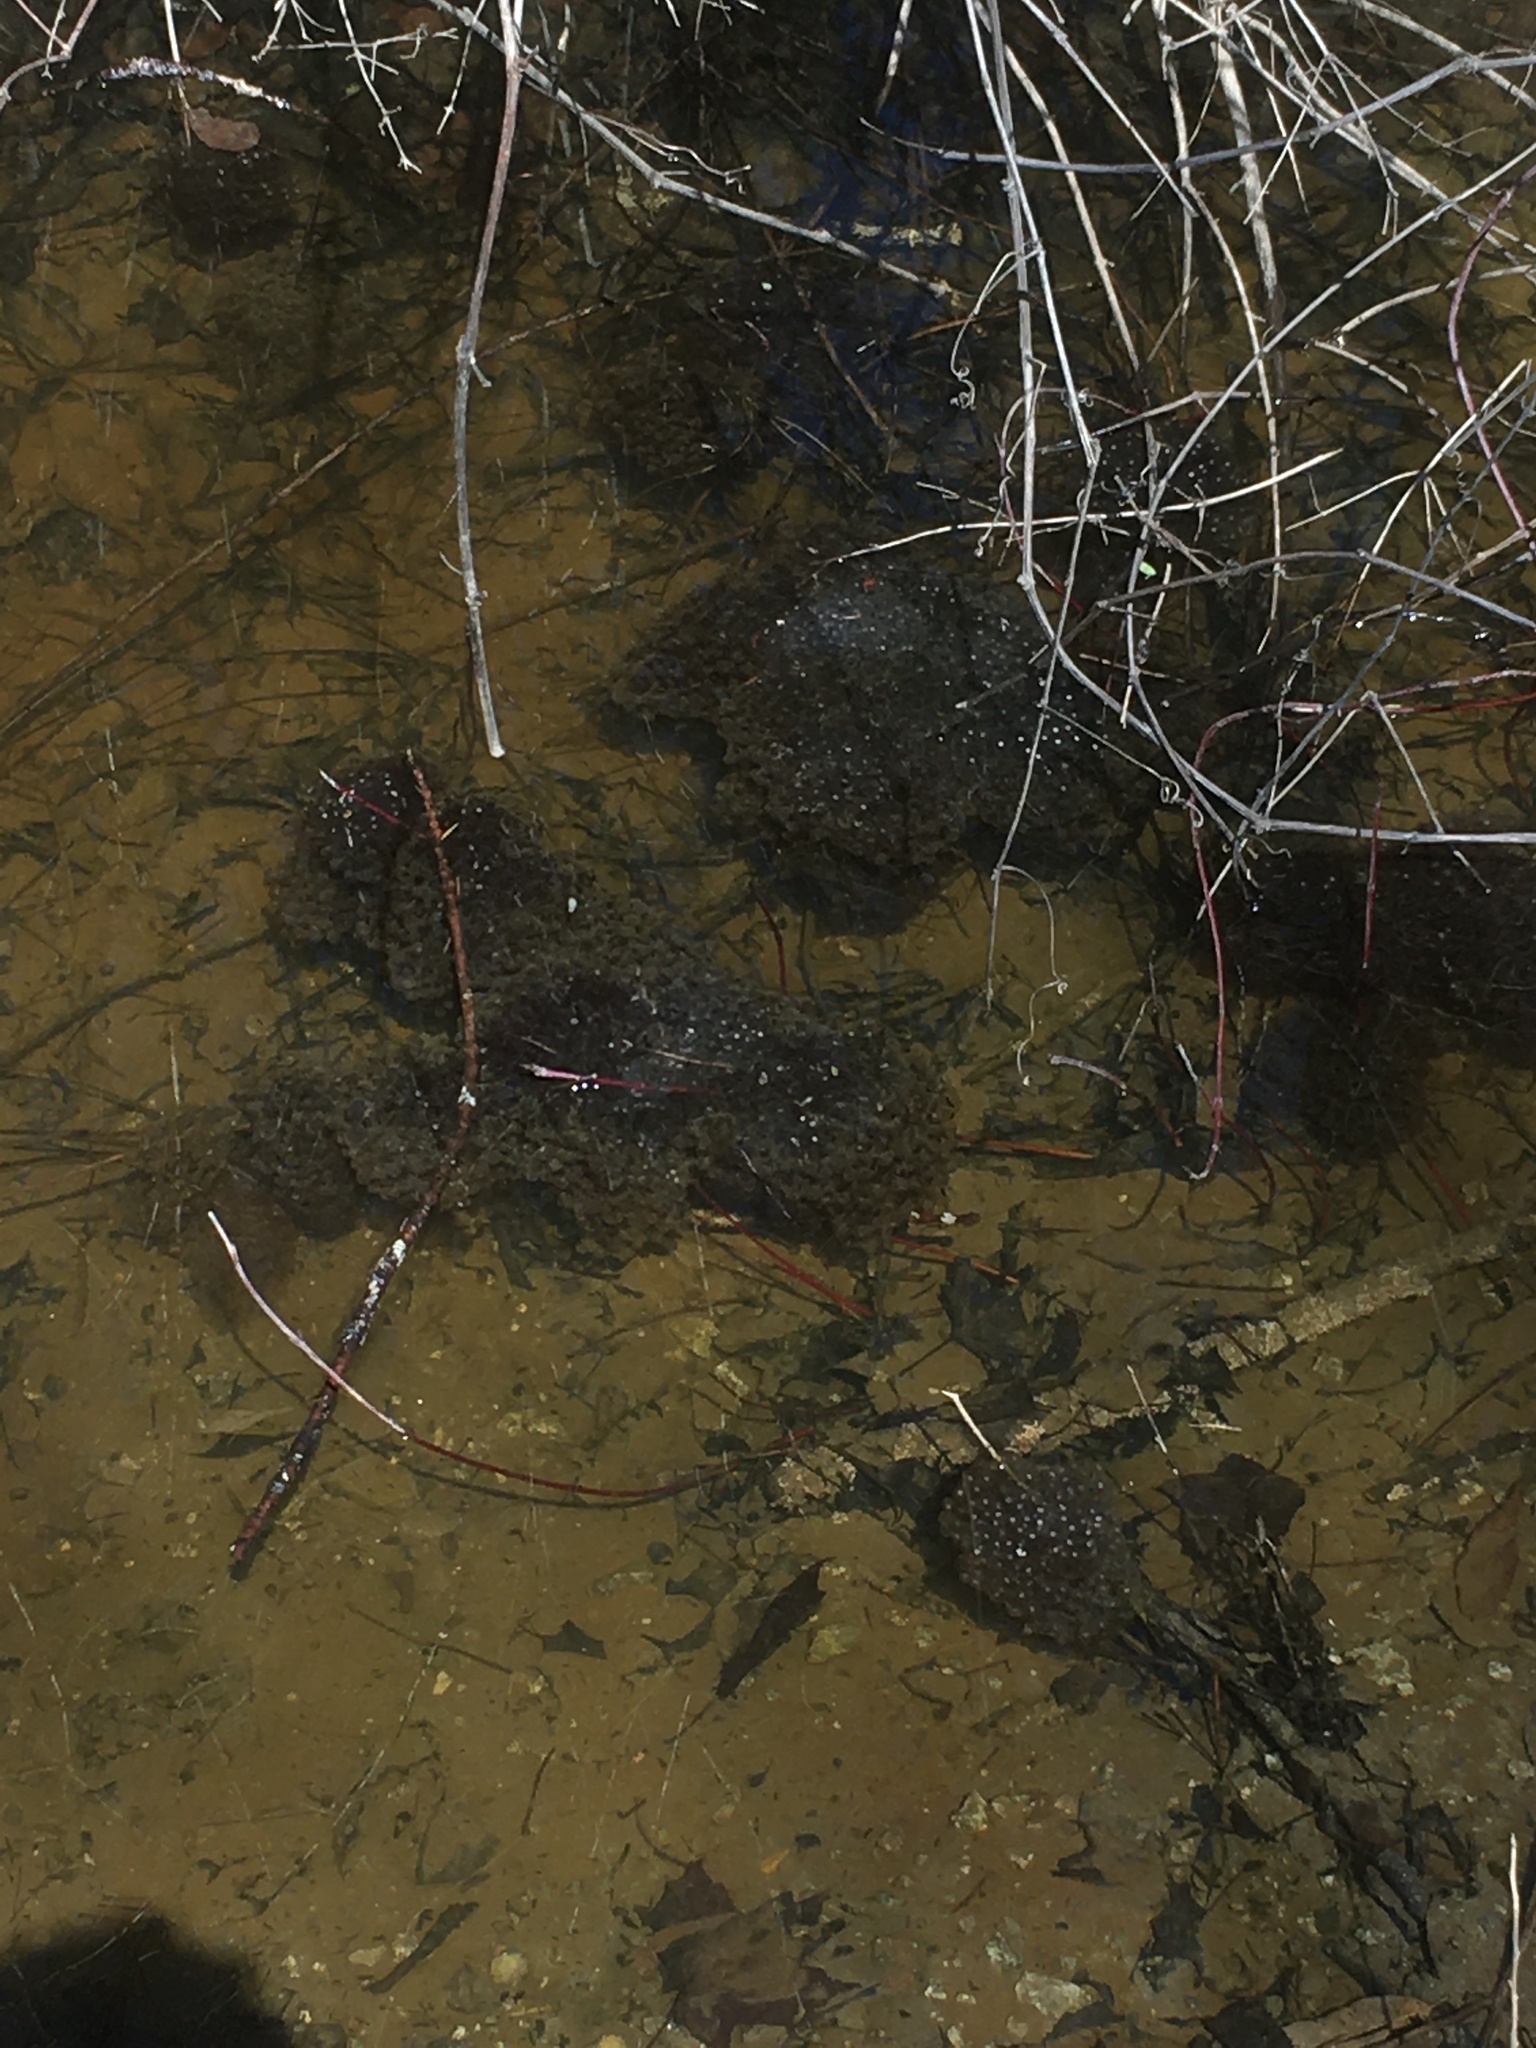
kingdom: Animalia
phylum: Chordata
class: Amphibia
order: Anura
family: Ranidae
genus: Lithobates
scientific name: Lithobates sylvaticus
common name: Wood frog
